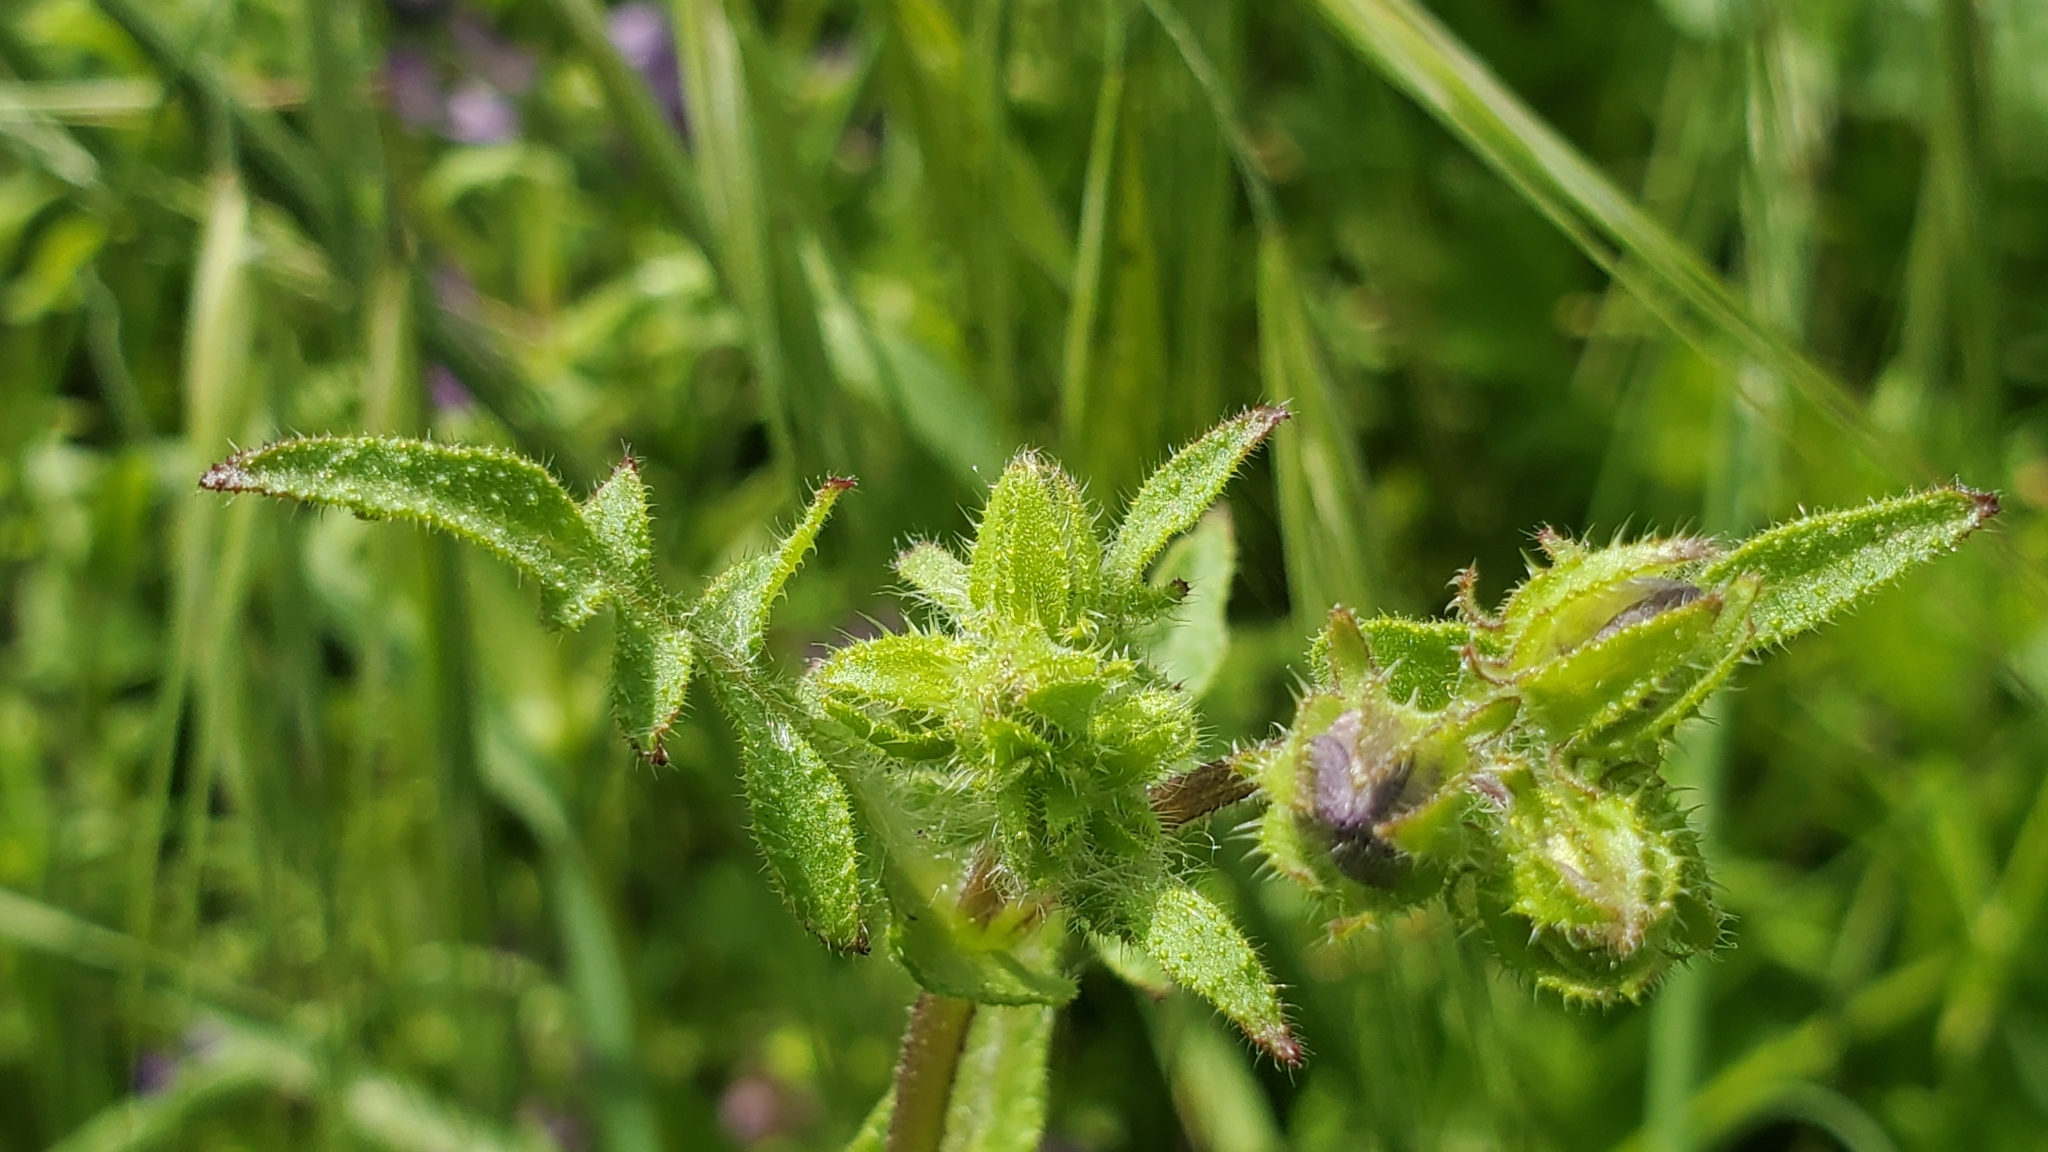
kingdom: Plantae
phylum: Tracheophyta
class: Magnoliopsida
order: Boraginales
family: Hydrophyllaceae
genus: Pholistoma
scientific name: Pholistoma auritum
